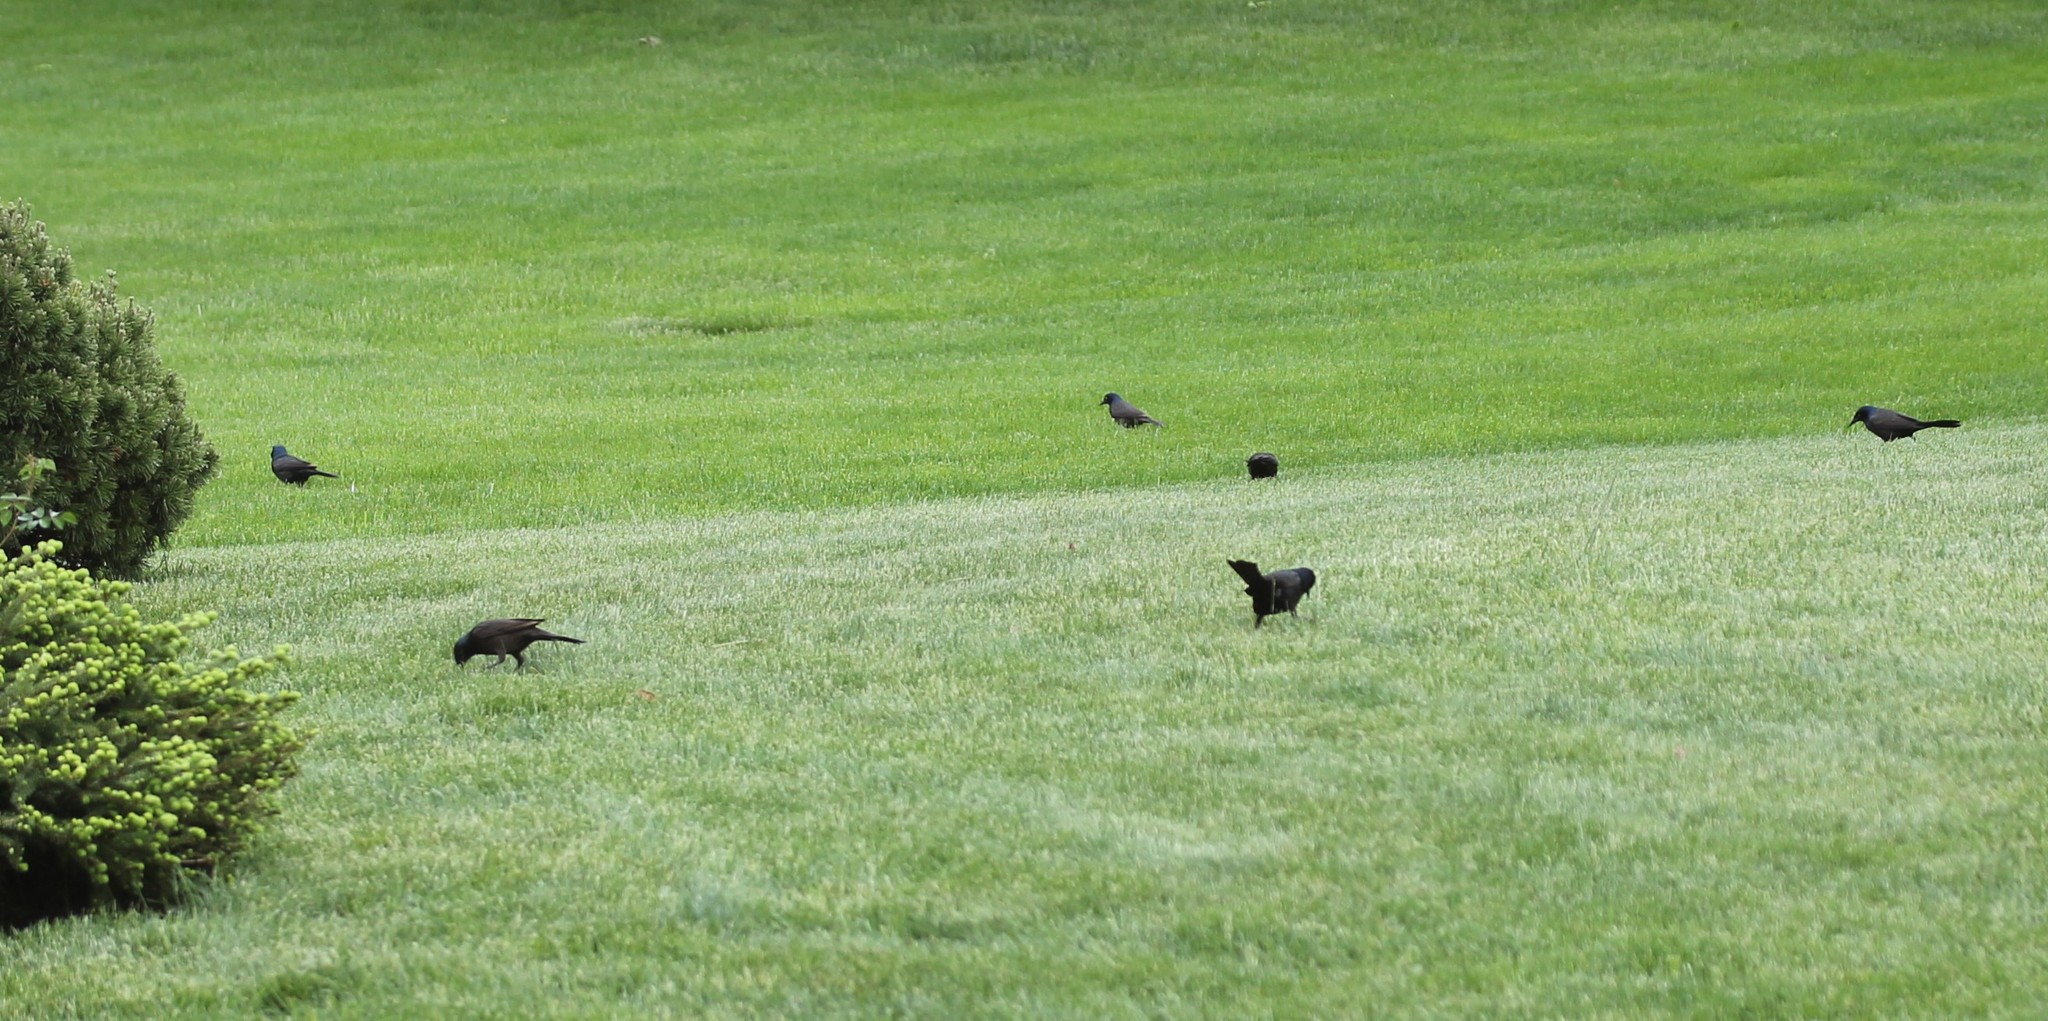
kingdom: Animalia
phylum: Chordata
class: Aves
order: Passeriformes
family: Icteridae
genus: Quiscalus
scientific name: Quiscalus quiscula
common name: Common grackle
